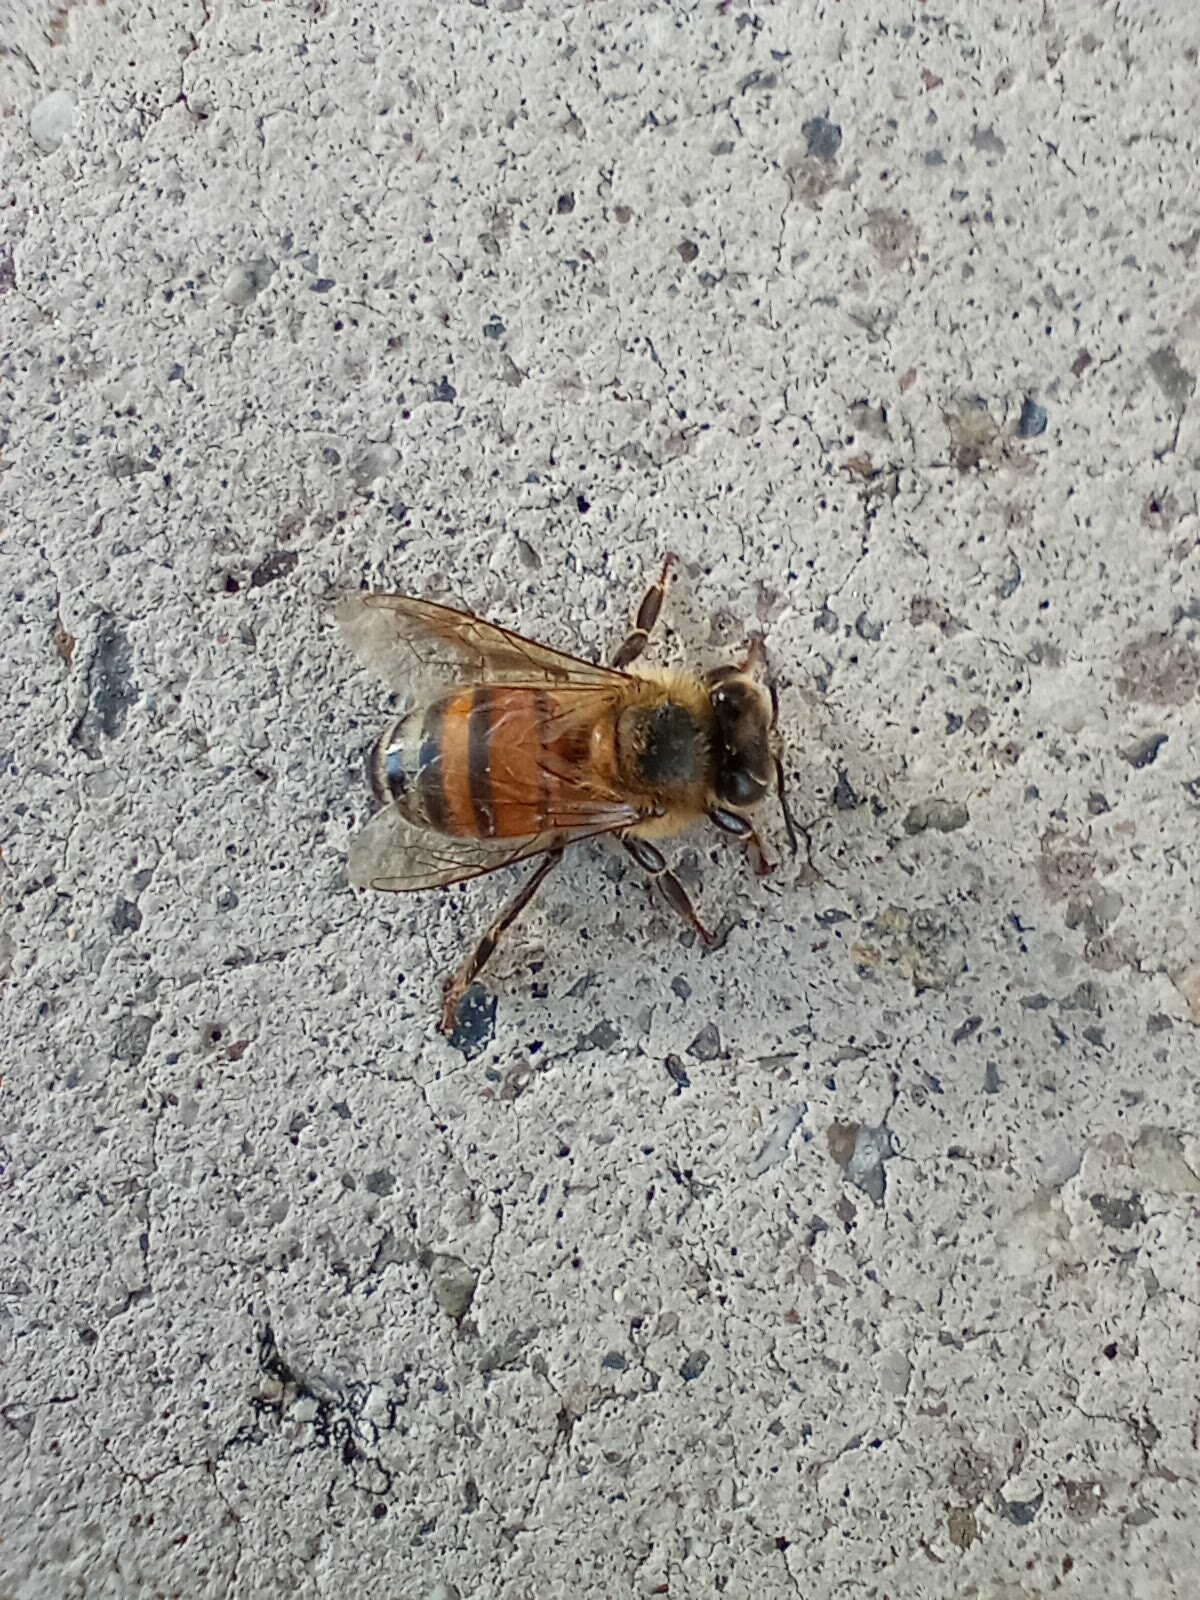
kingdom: Animalia
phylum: Arthropoda
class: Insecta
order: Hymenoptera
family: Apidae
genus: Apis
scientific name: Apis mellifera
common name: Honey bee
